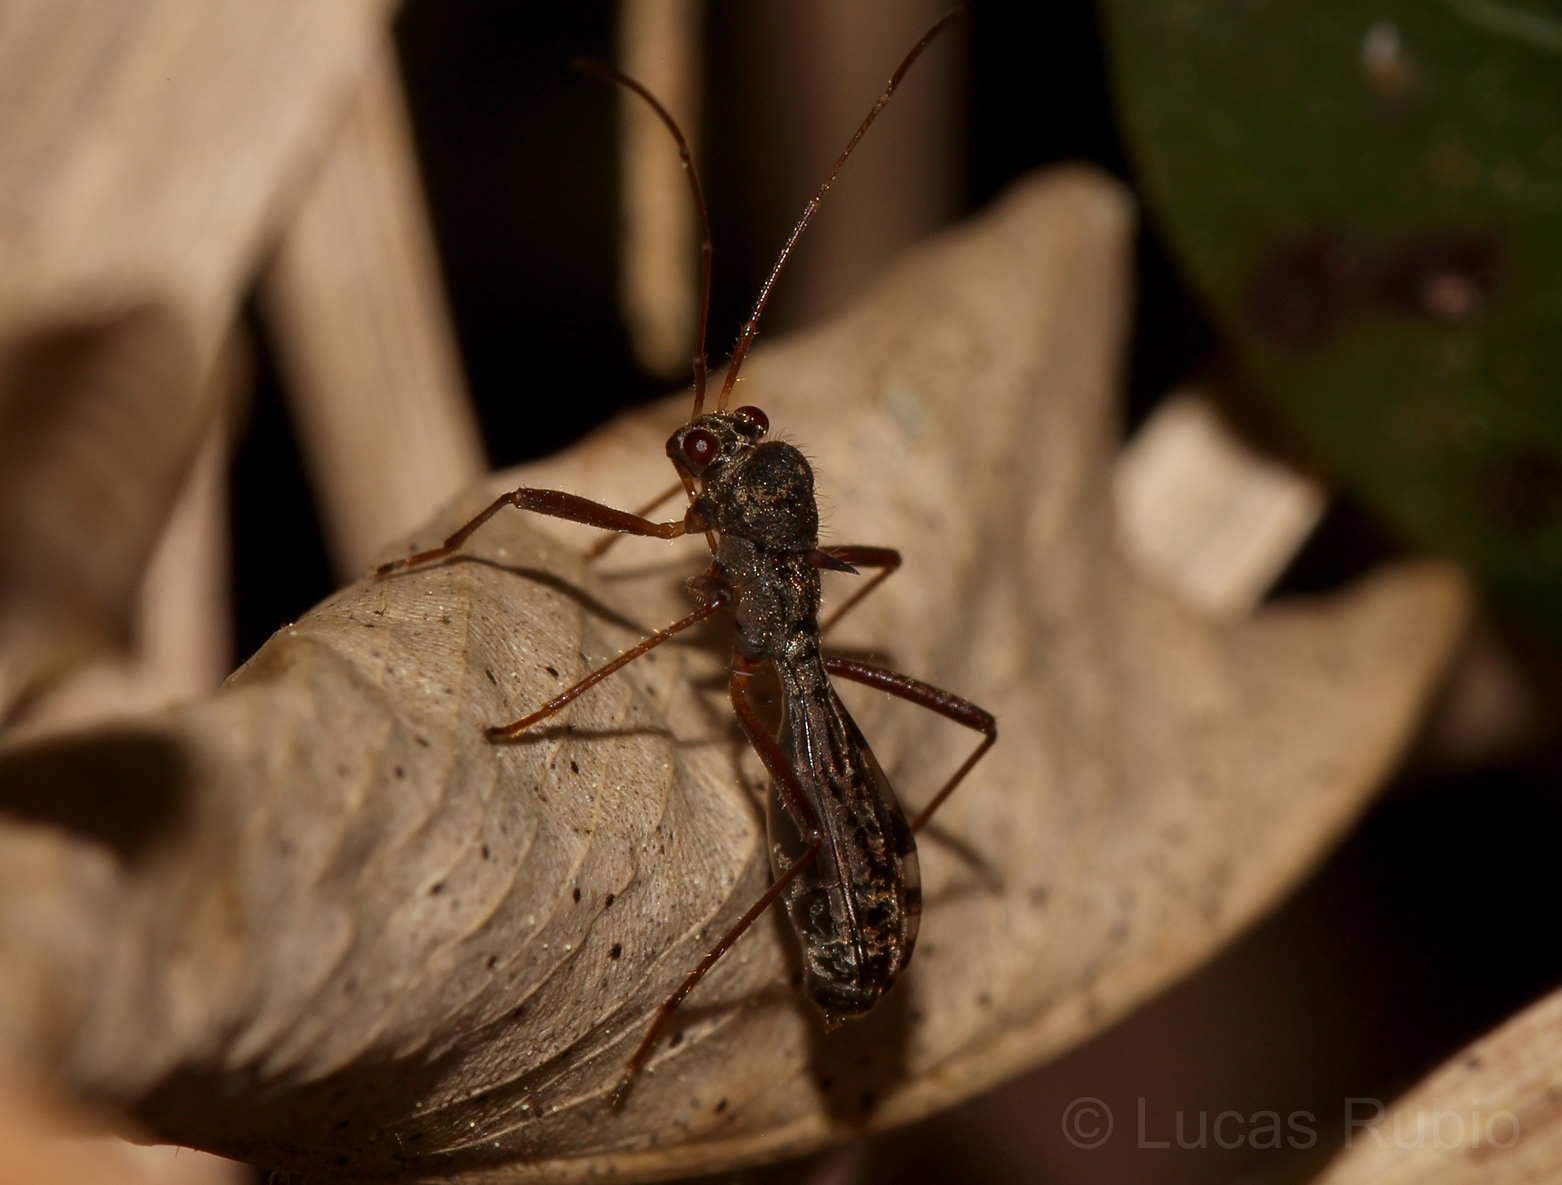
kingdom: Animalia
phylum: Arthropoda
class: Insecta
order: Hemiptera
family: Colobathristidae
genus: Trichocentrus
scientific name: Trichocentrus gibbosus
